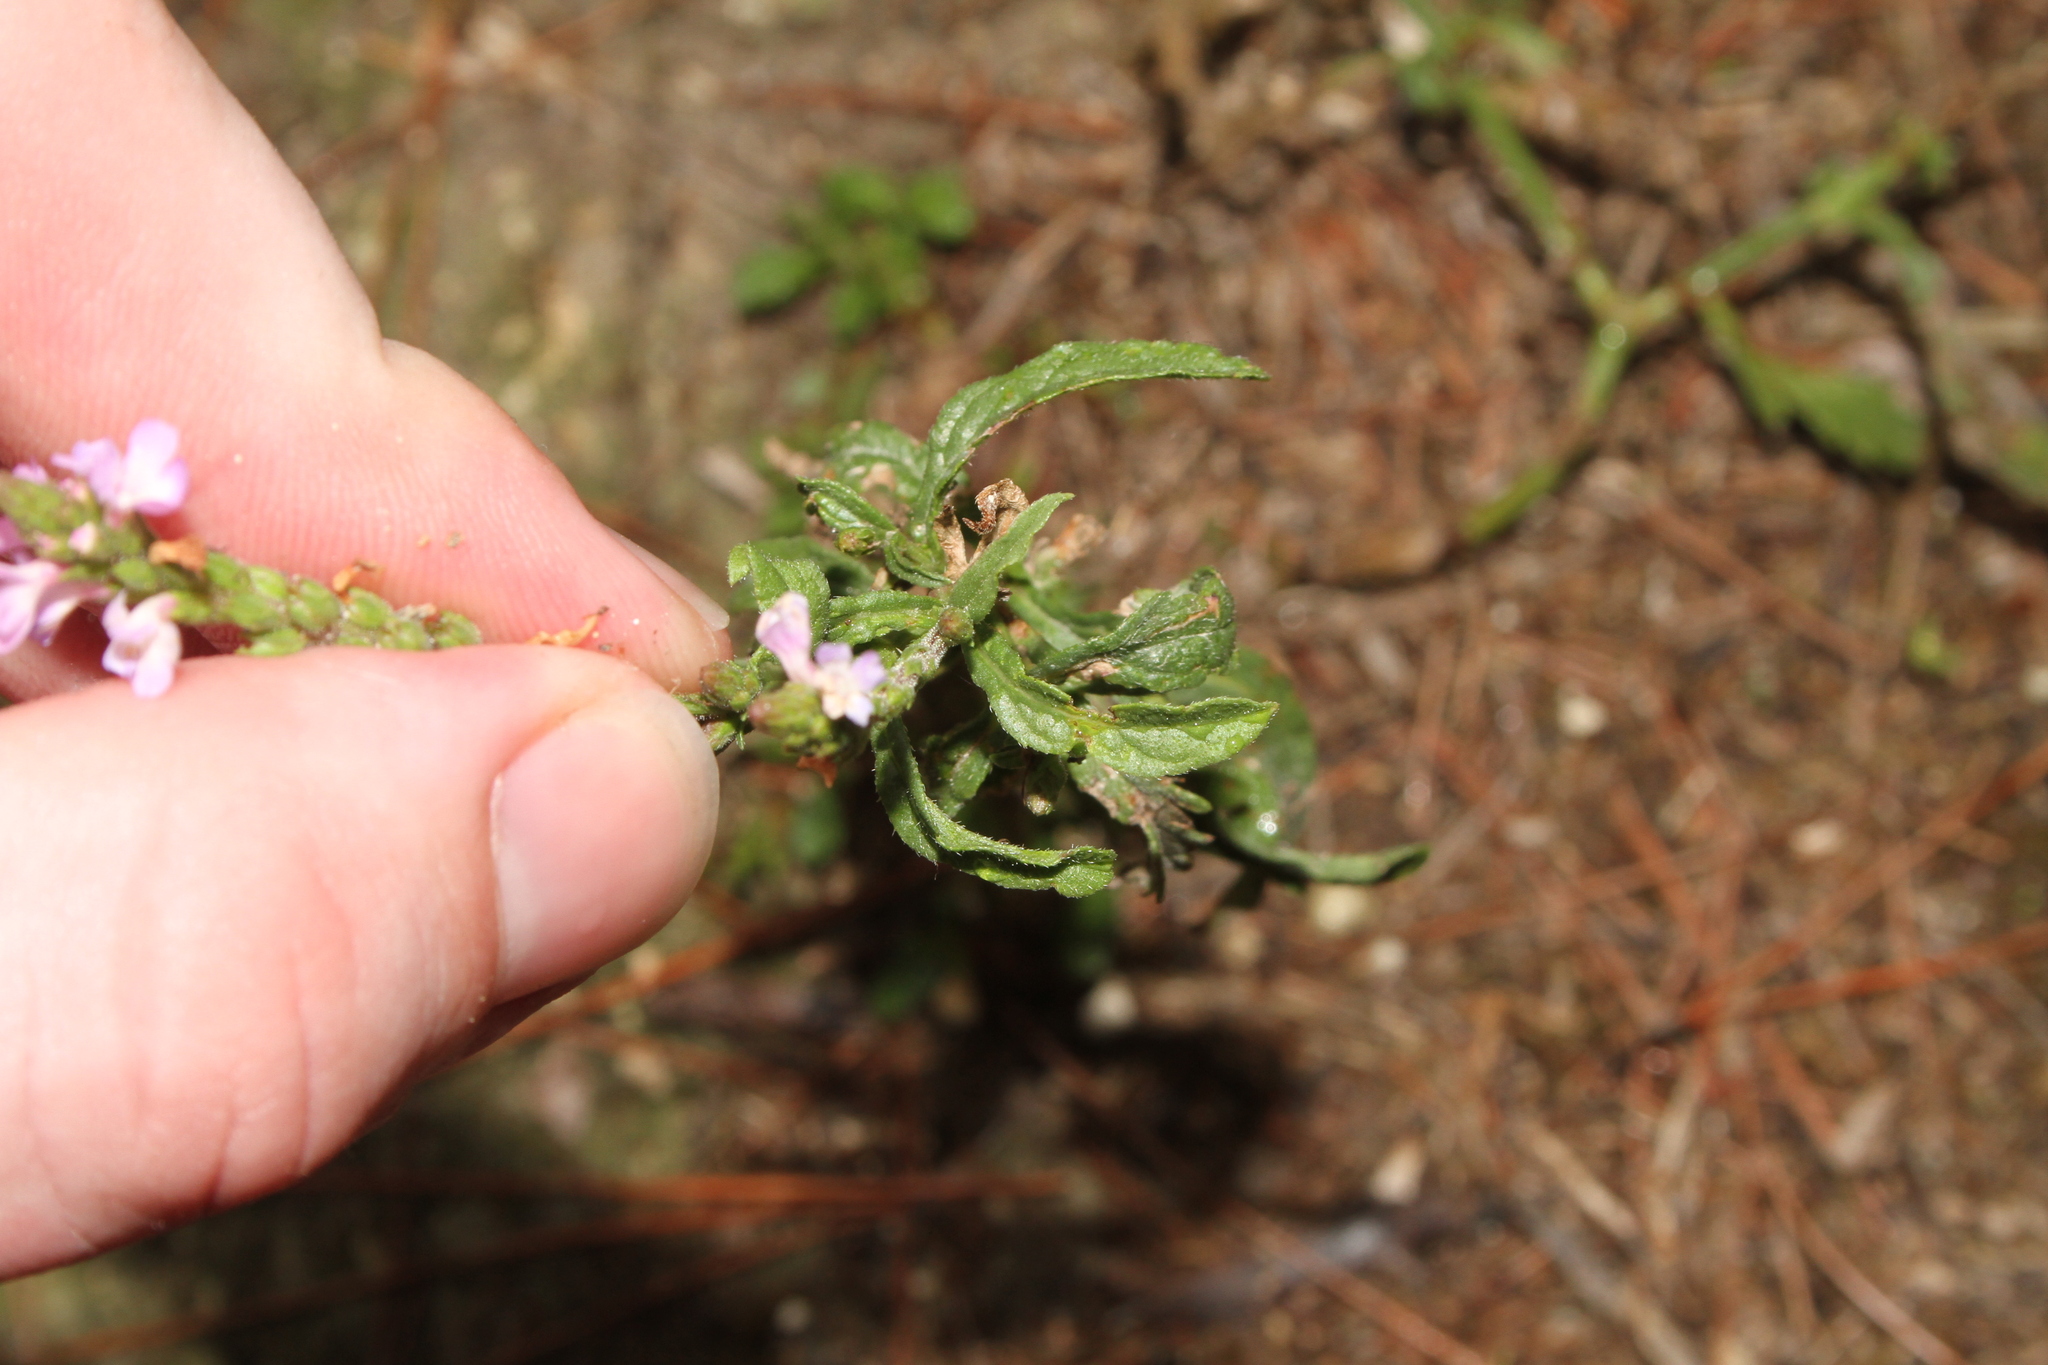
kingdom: Plantae
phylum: Tracheophyta
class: Magnoliopsida
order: Lamiales
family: Verbenaceae
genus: Verbena
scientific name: Verbena officinalis
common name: Vervain
